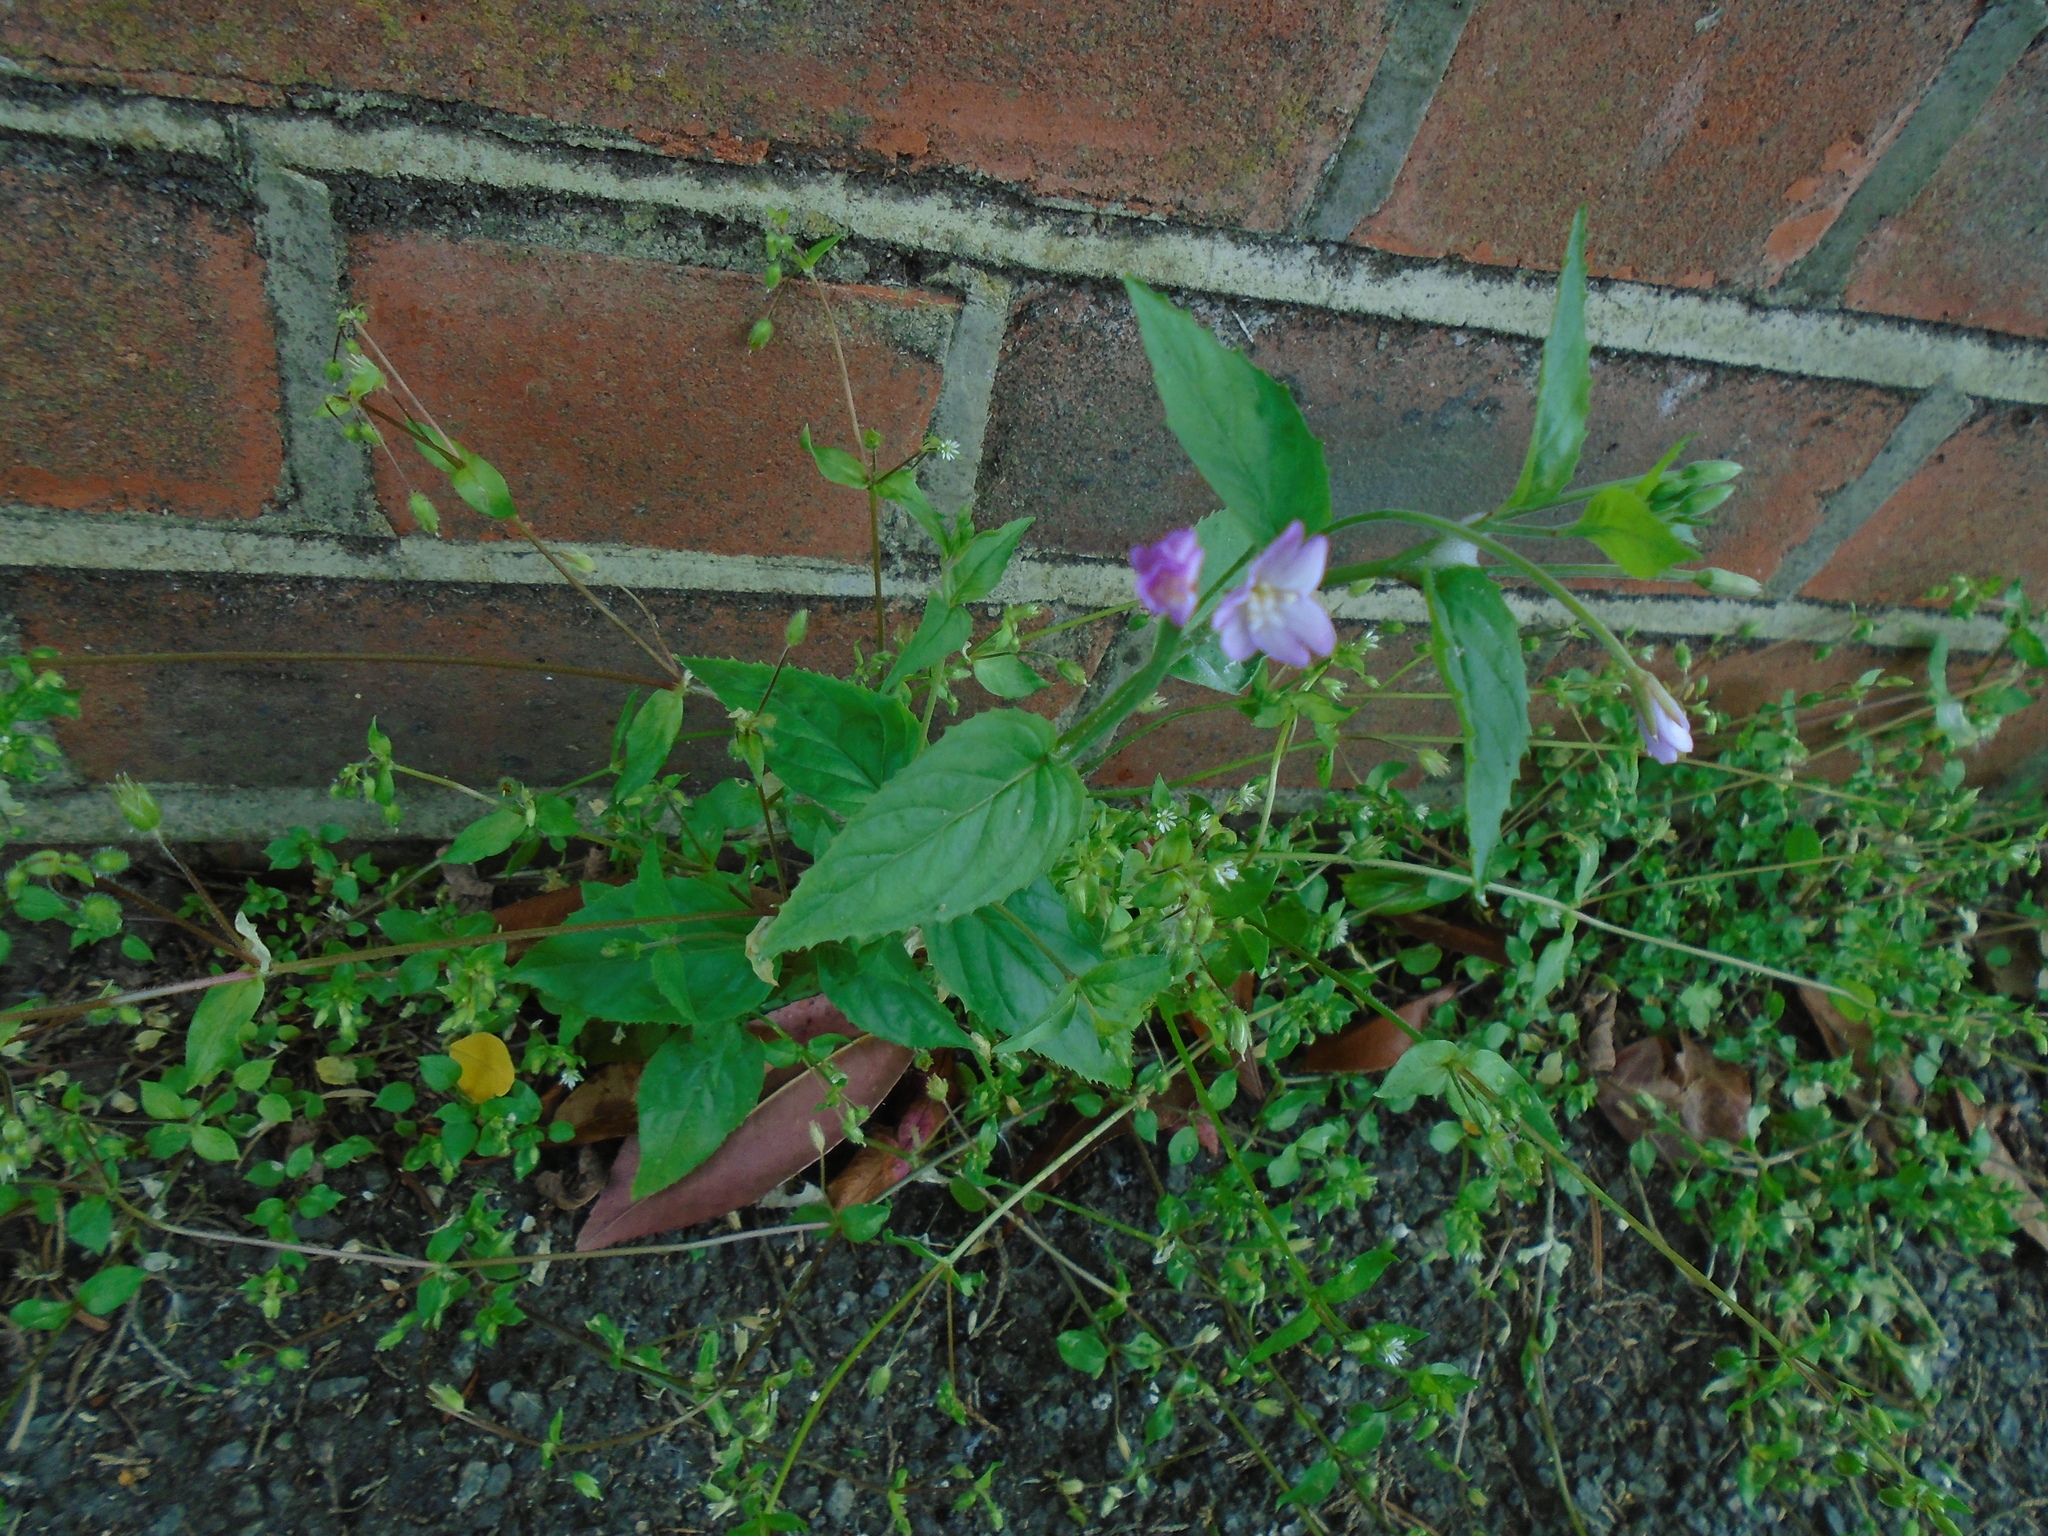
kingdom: Plantae
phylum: Tracheophyta
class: Magnoliopsida
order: Myrtales
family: Onagraceae
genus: Epilobium
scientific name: Epilobium parviflorum
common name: Hoary willowherb
